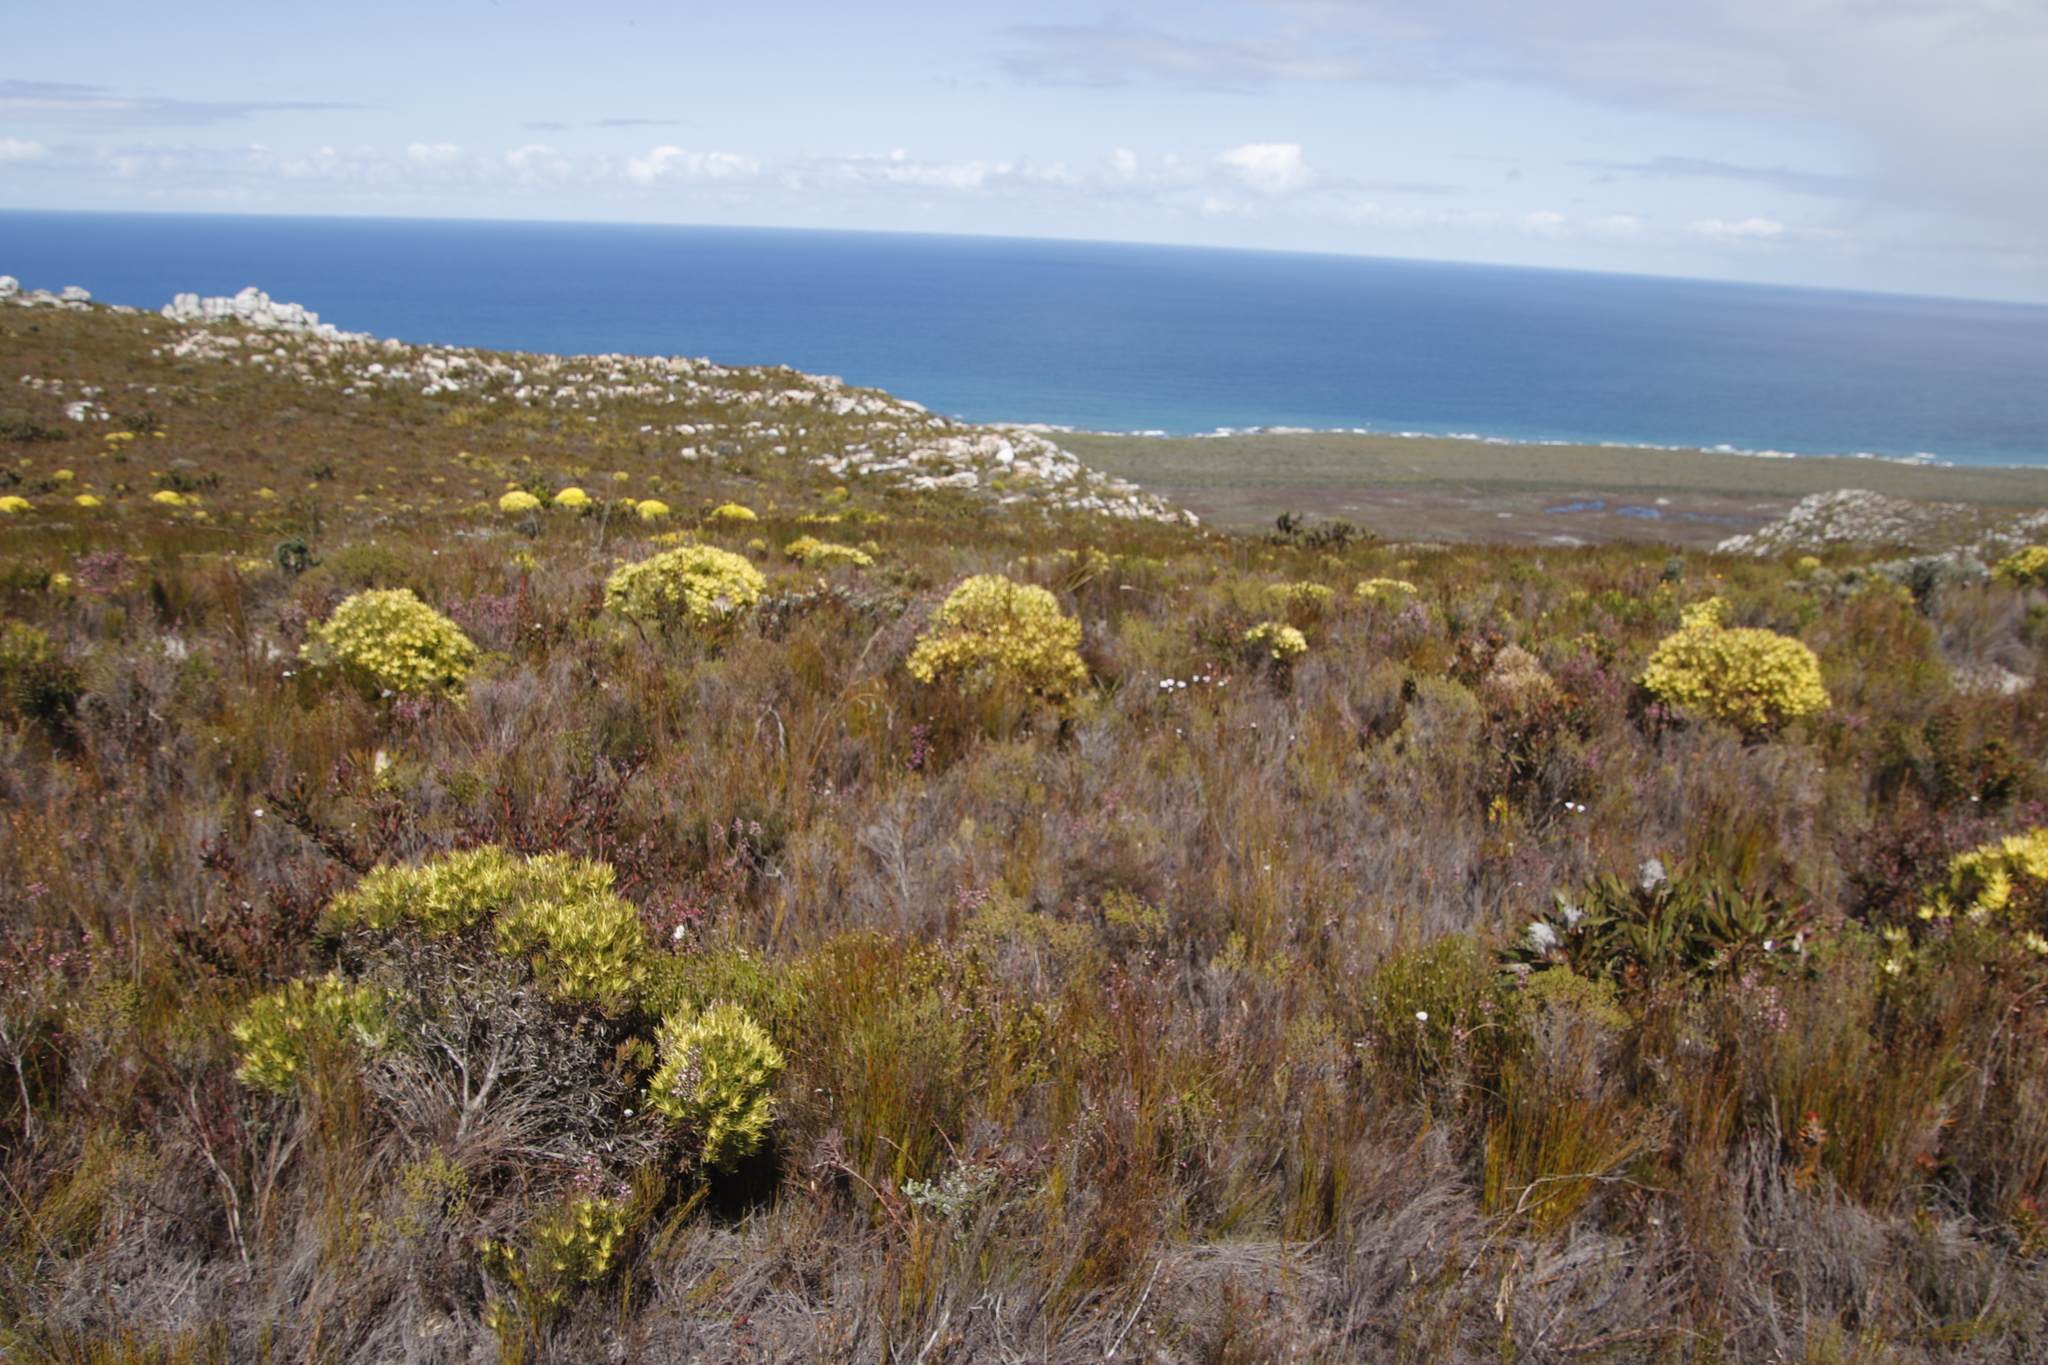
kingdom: Plantae
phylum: Tracheophyta
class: Magnoliopsida
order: Proteales
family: Proteaceae
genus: Leucadendron
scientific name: Leucadendron xanthoconus
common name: Sickle-leaf conebush
